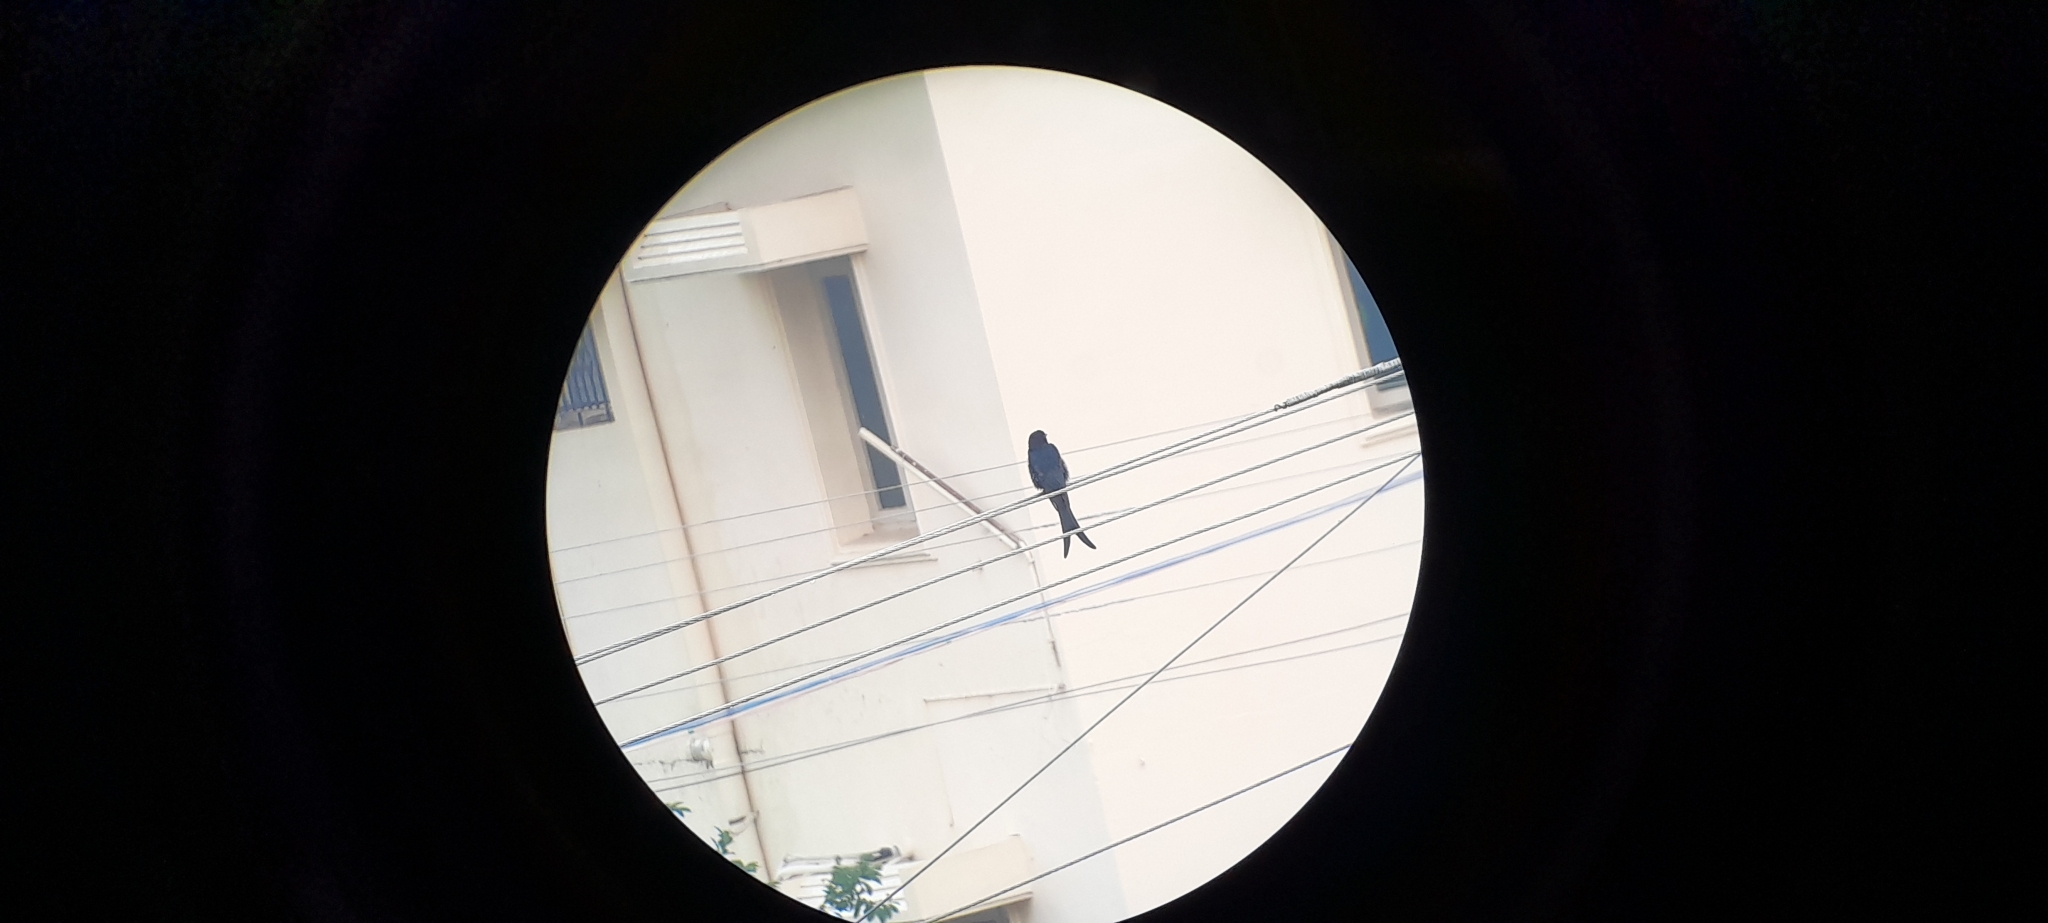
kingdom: Animalia
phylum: Chordata
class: Aves
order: Passeriformes
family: Dicruridae
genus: Dicrurus
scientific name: Dicrurus macrocercus
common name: Black drongo
